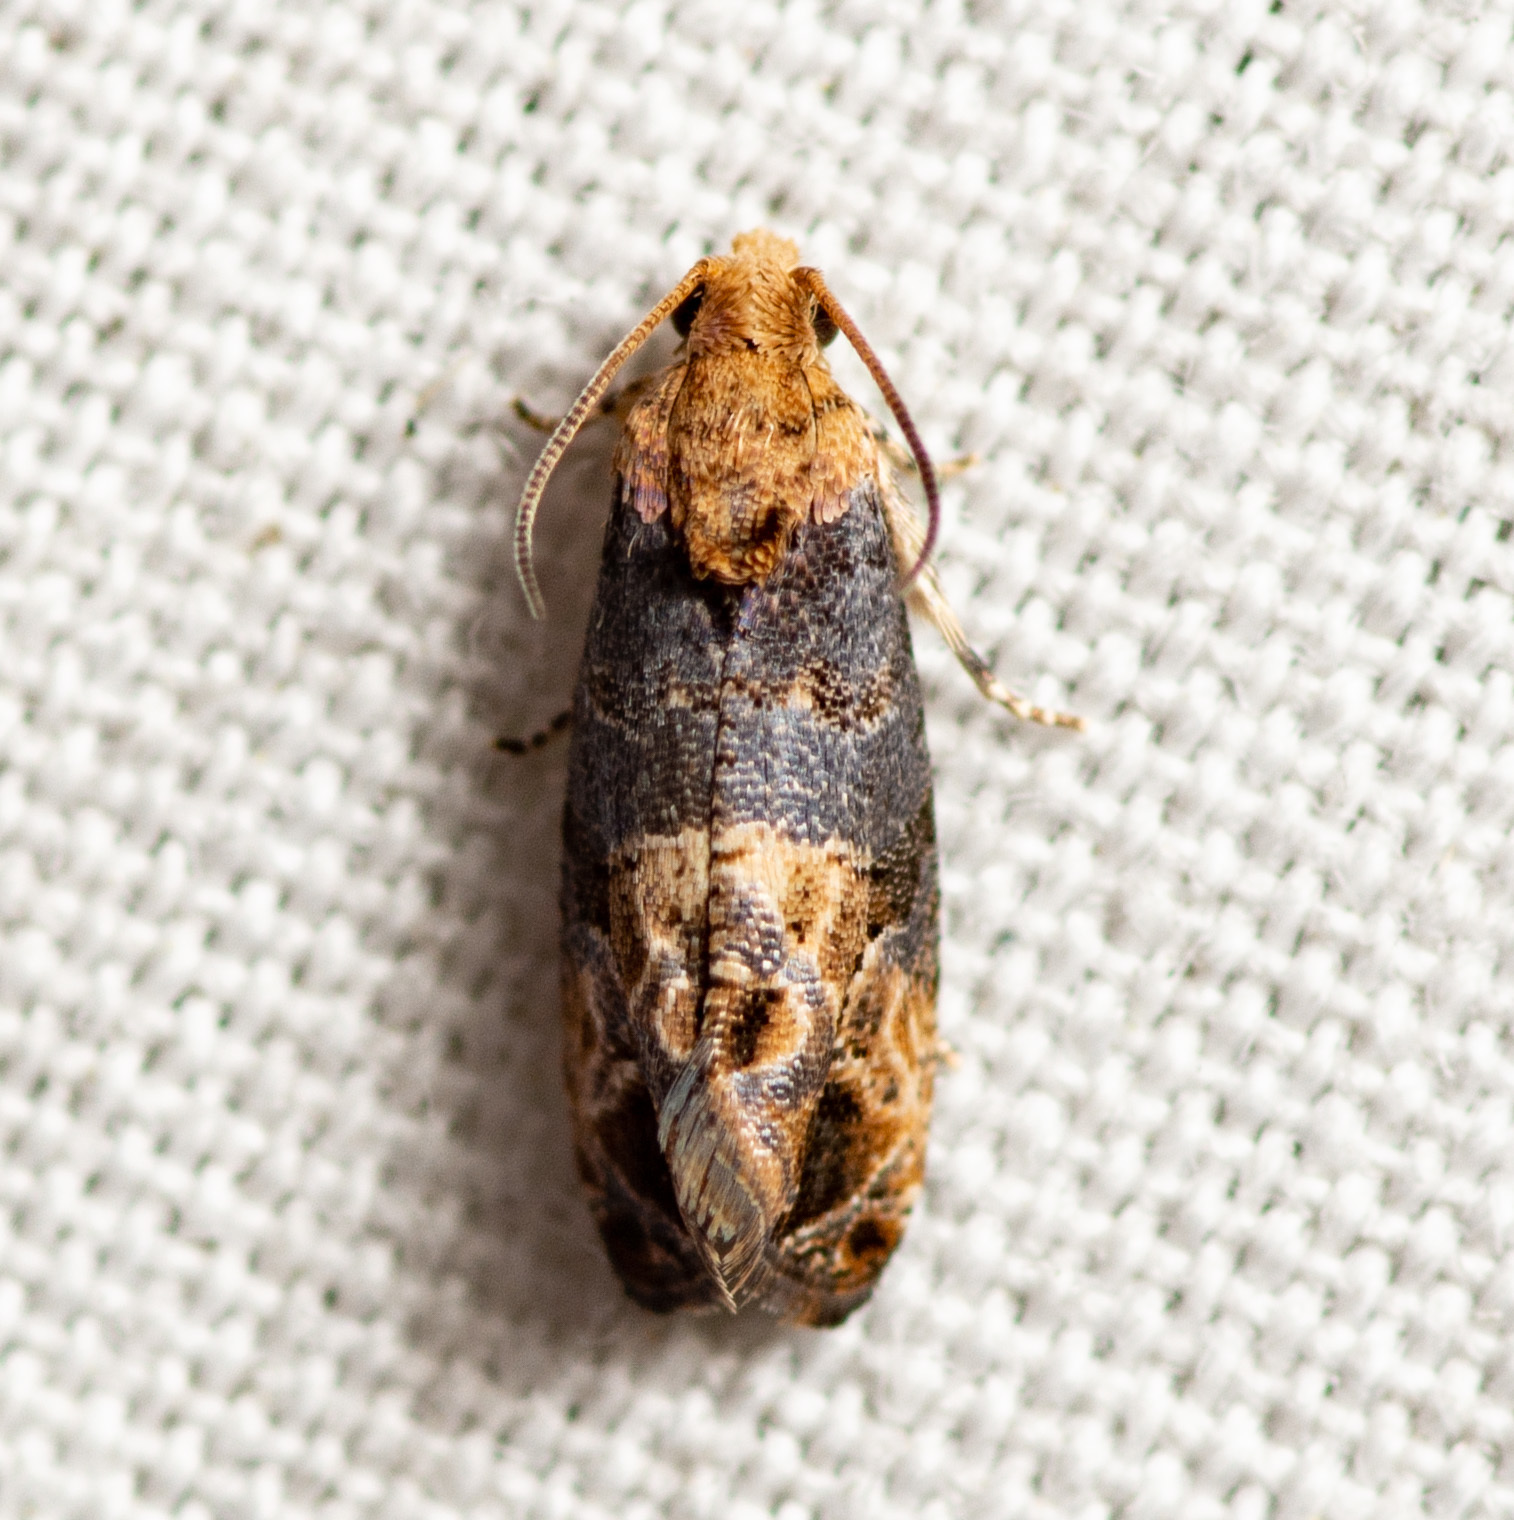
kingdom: Animalia
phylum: Arthropoda
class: Insecta
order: Lepidoptera
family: Tortricidae
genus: Paralobesia
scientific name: Paralobesia viteana
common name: Grape berry moth
